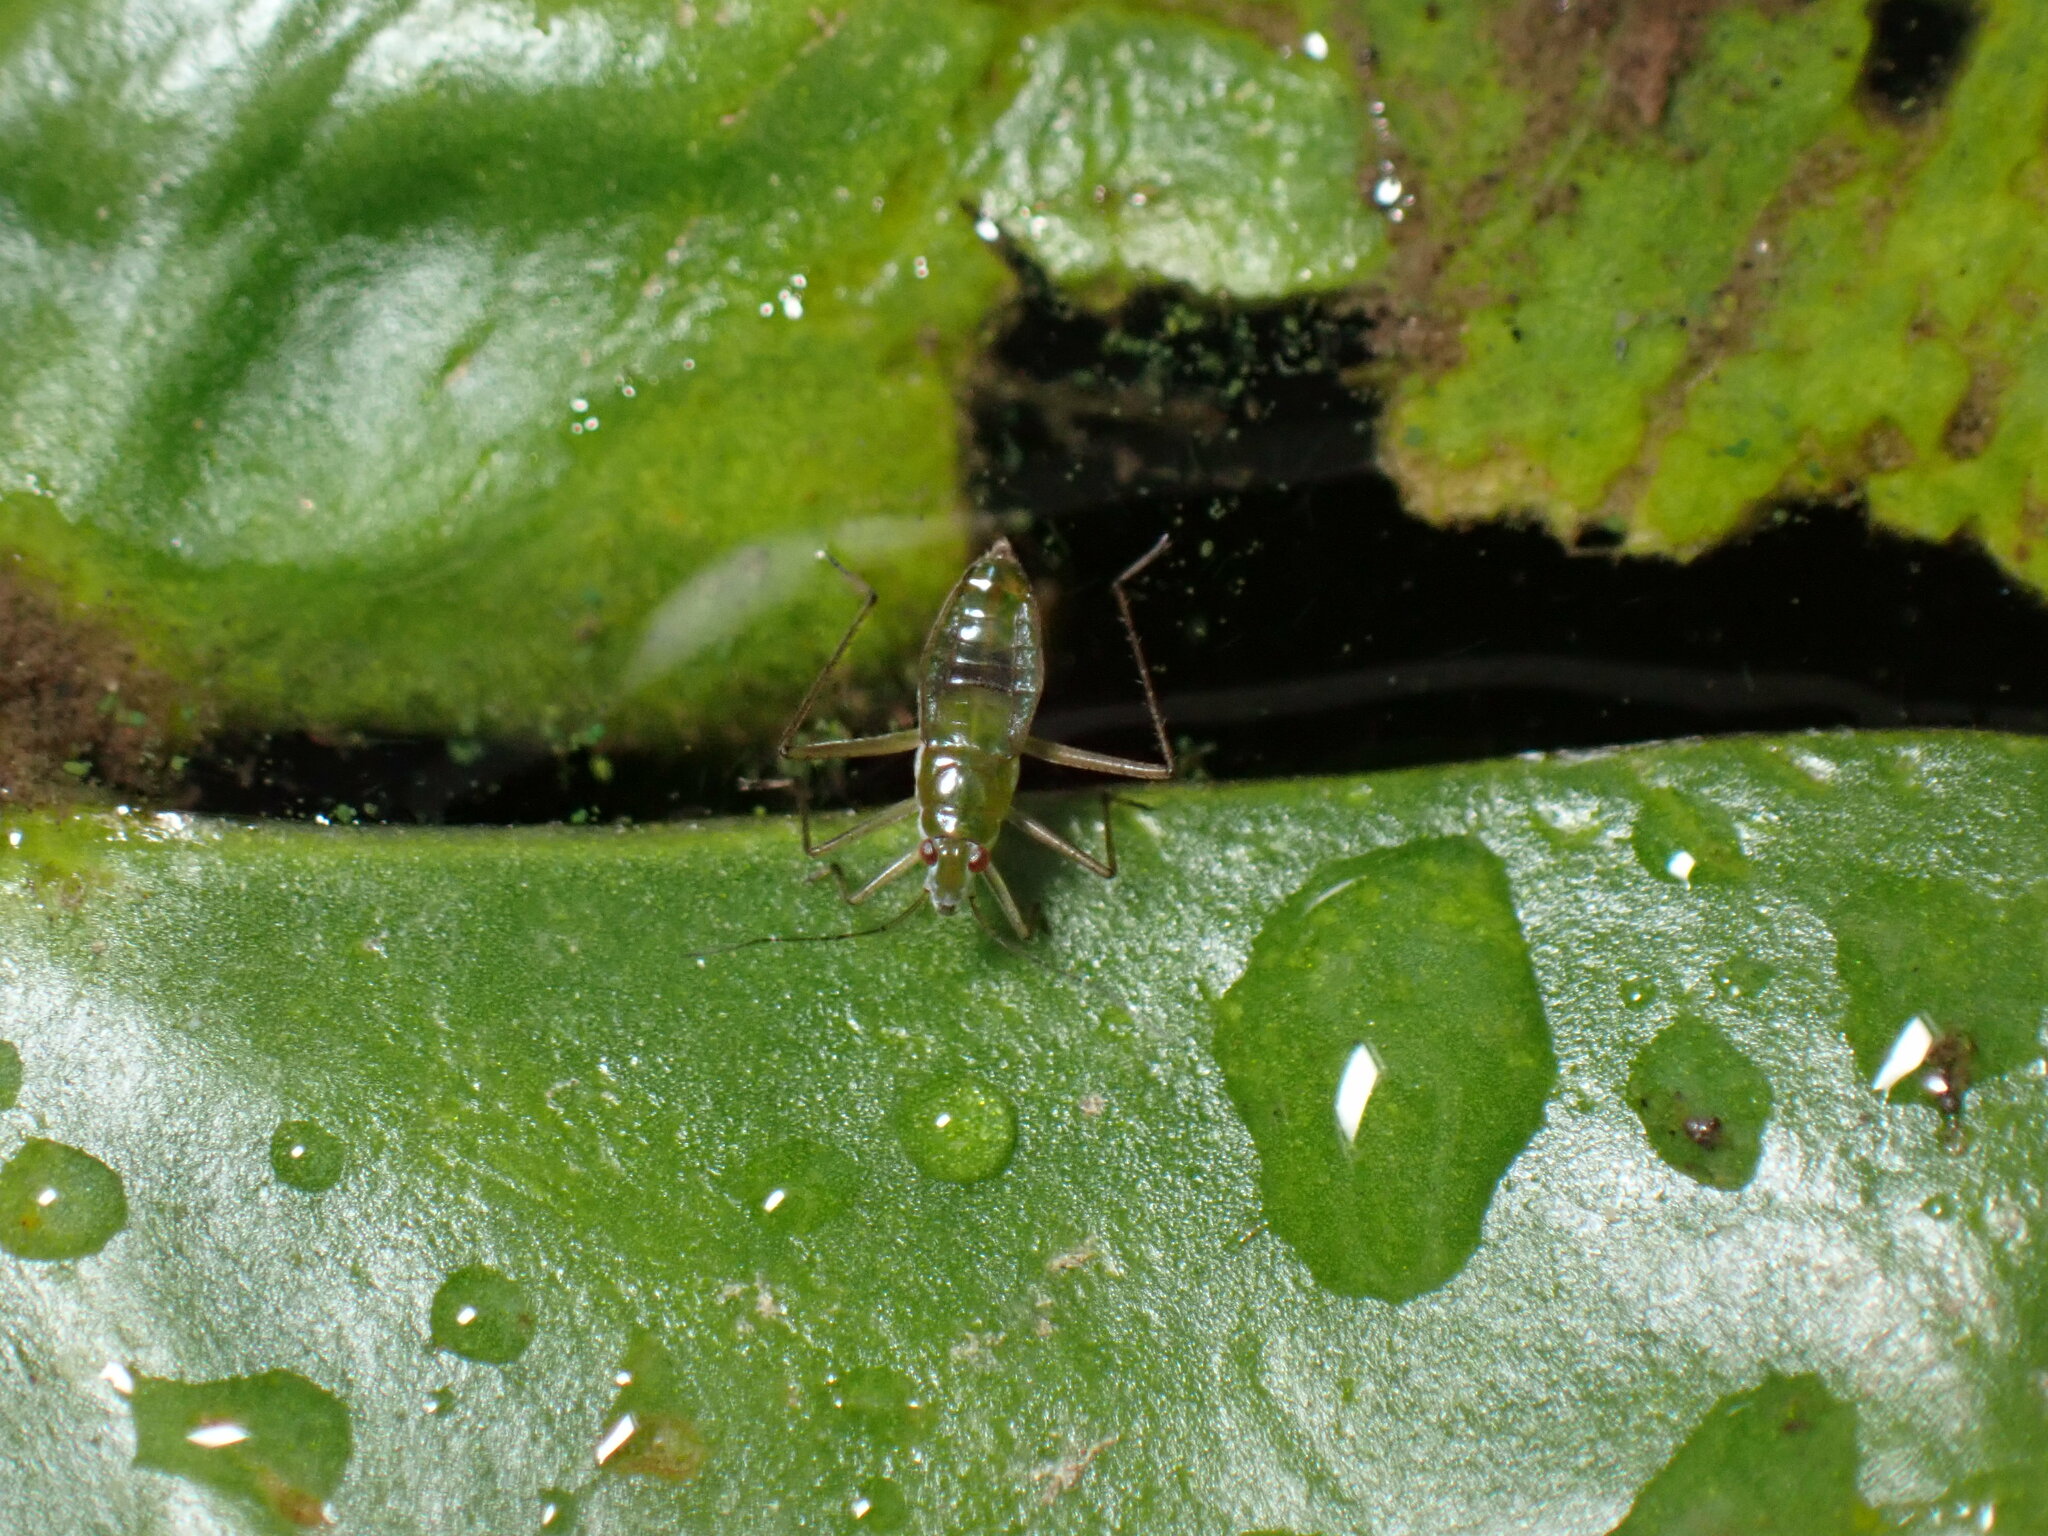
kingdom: Animalia
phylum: Arthropoda
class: Insecta
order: Hemiptera
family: Mesoveliidae
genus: Mesovelia
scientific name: Mesovelia mulsanti
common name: Water treaders
